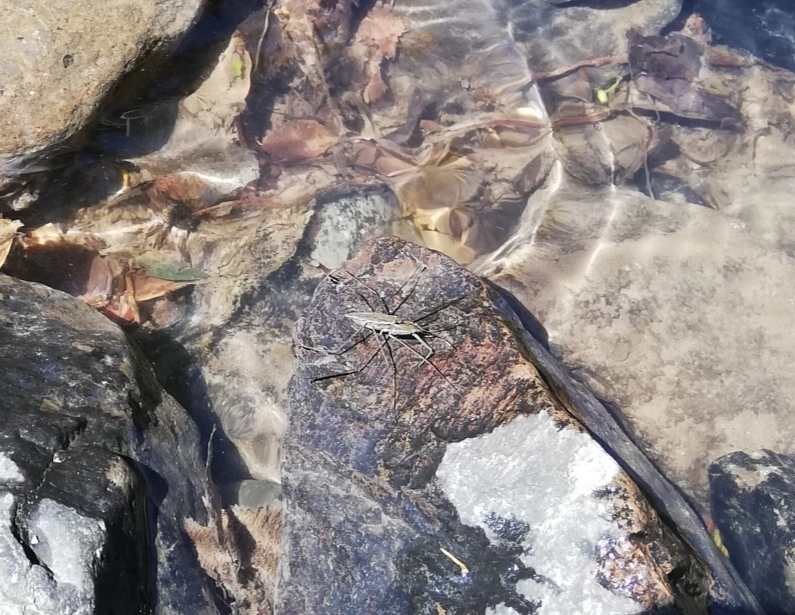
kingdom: Animalia
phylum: Arthropoda
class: Insecta
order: Hemiptera
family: Gerridae
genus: Aquarius
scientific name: Aquarius chilensis
